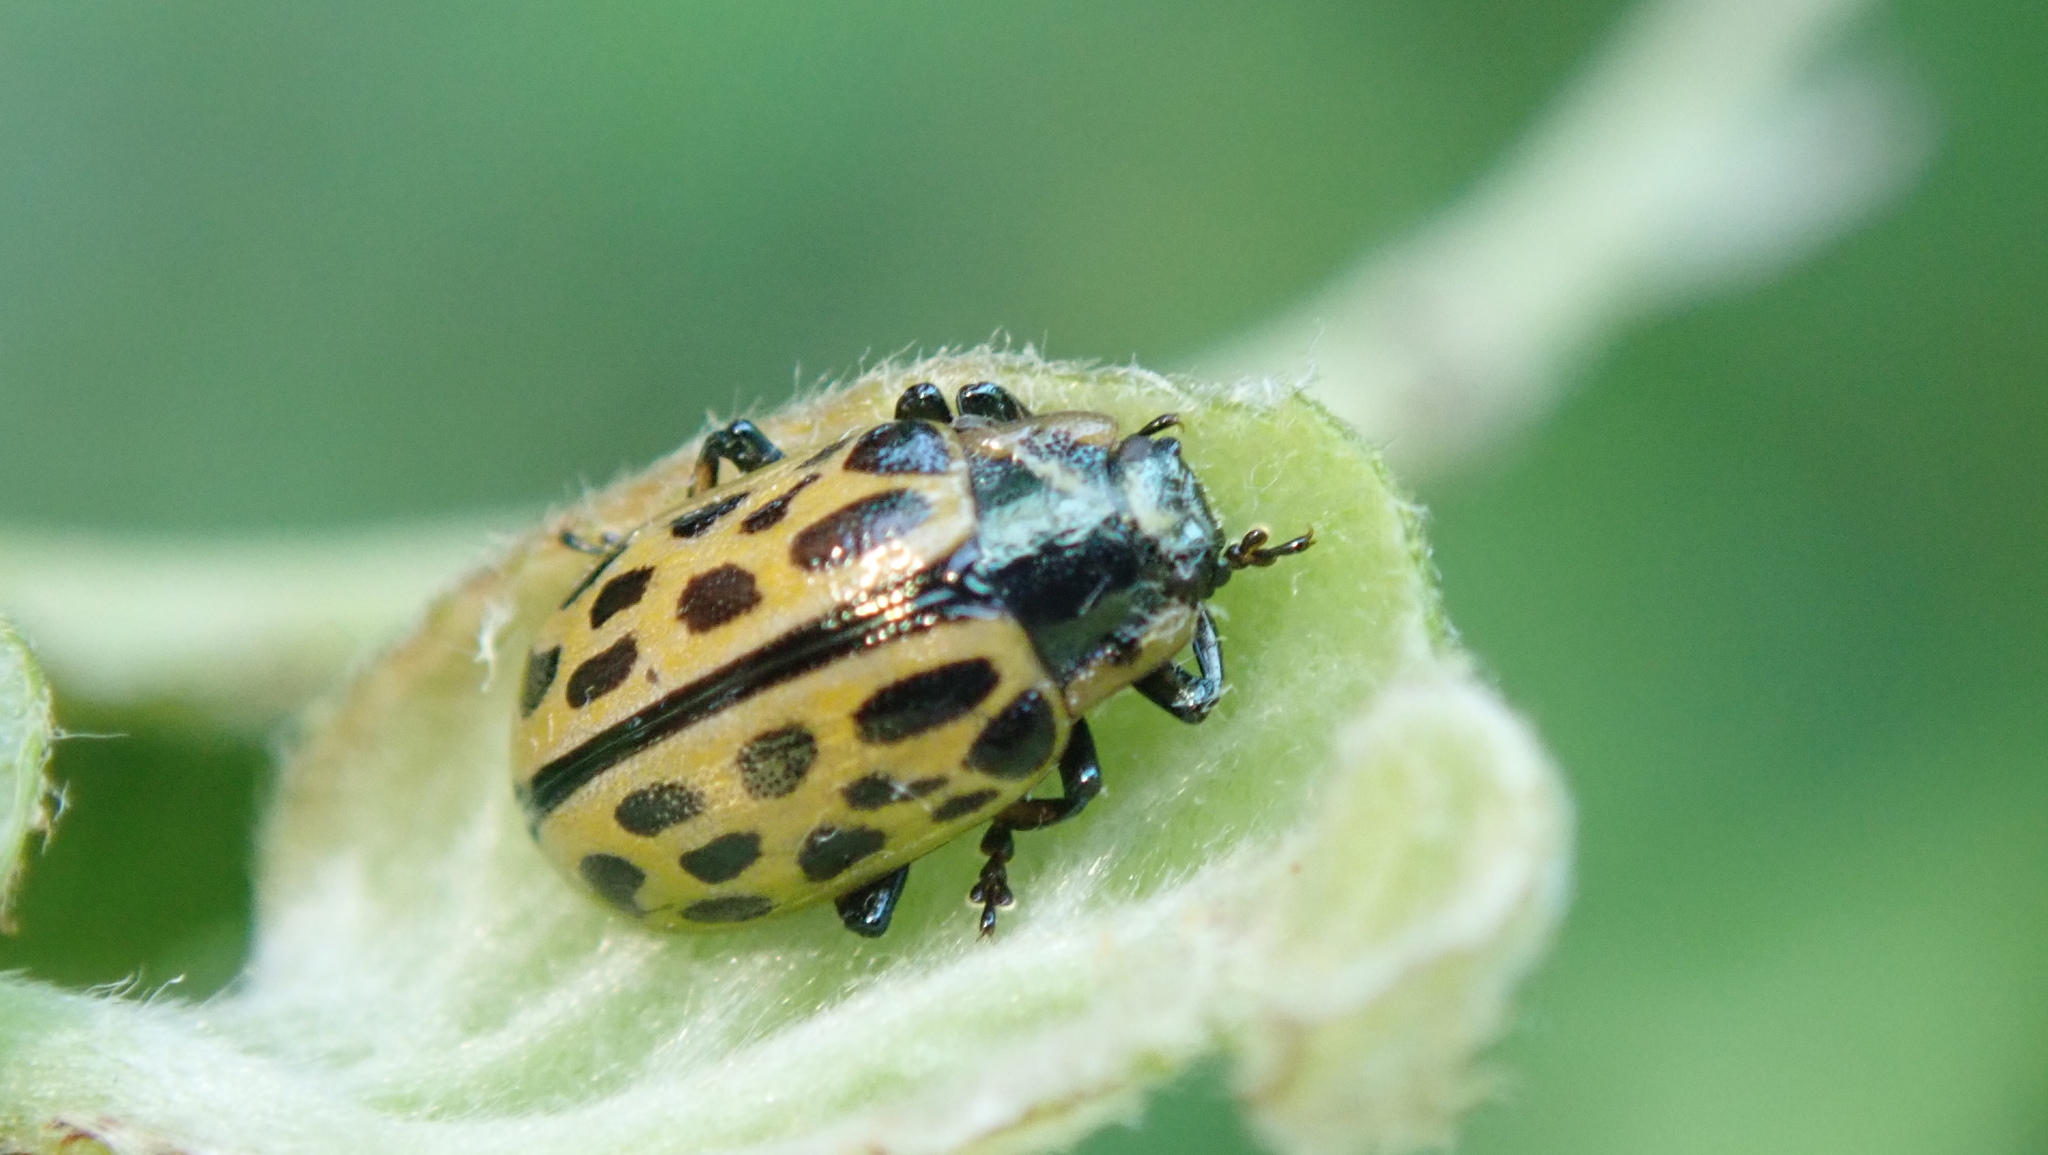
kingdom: Animalia
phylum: Arthropoda
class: Insecta
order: Coleoptera
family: Chrysomelidae
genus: Chrysomela
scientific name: Chrysomela vigintipunctata
